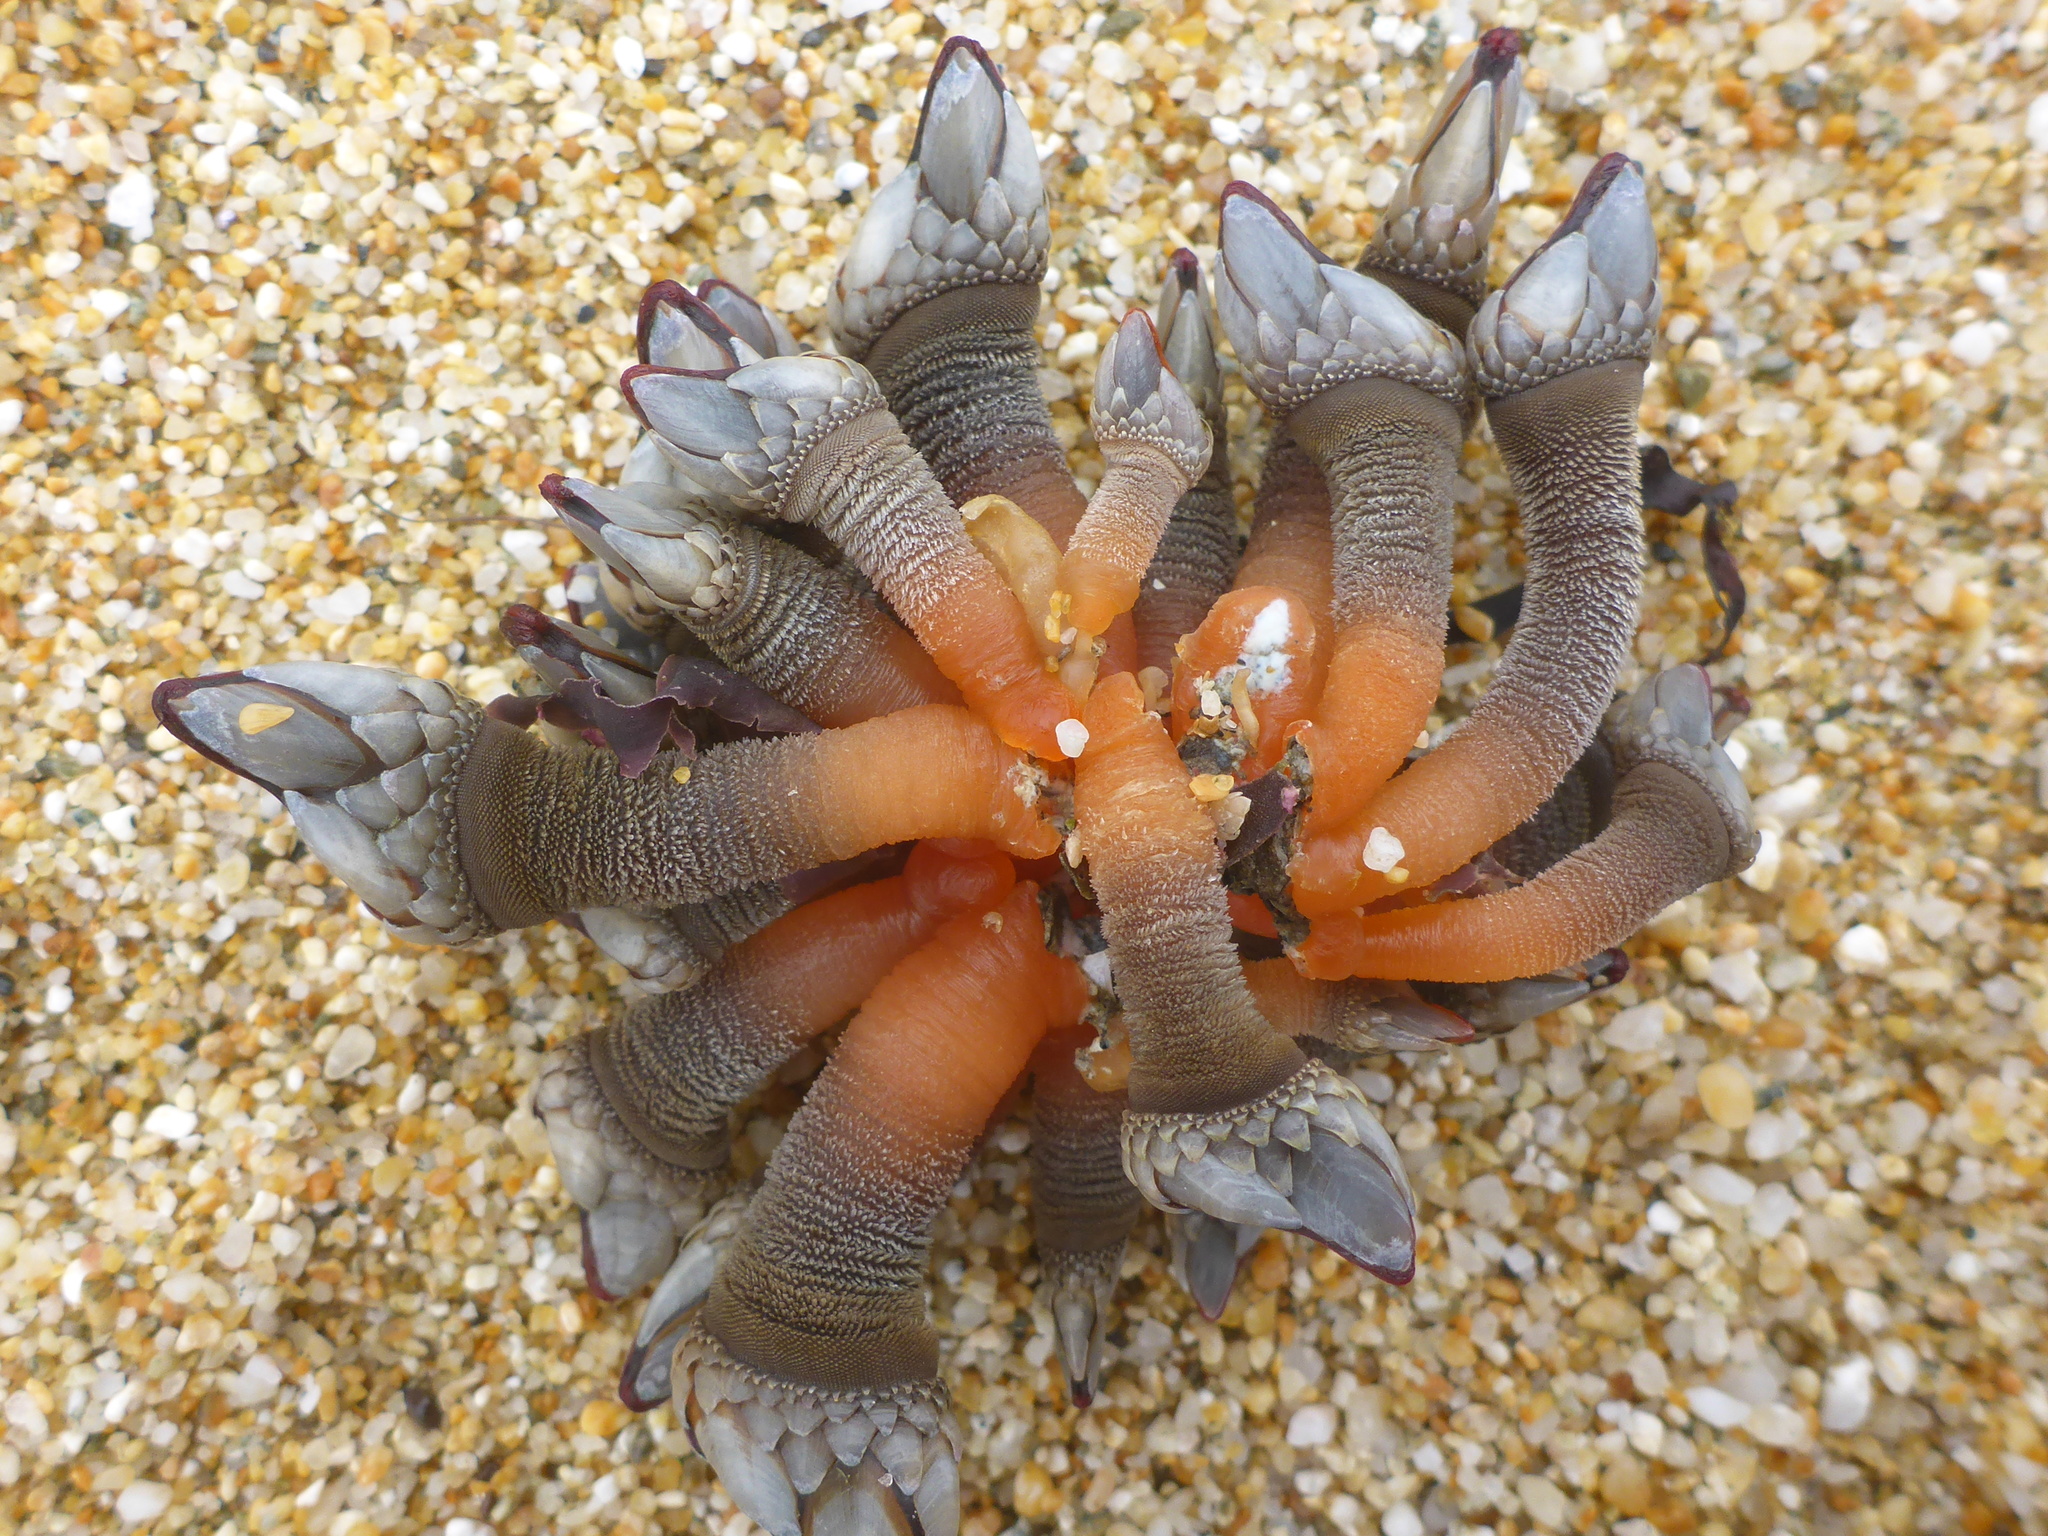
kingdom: Animalia
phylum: Arthropoda
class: Maxillopoda
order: Pedunculata
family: Pollicipedidae
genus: Pollicipes
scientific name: Pollicipes polymerus
